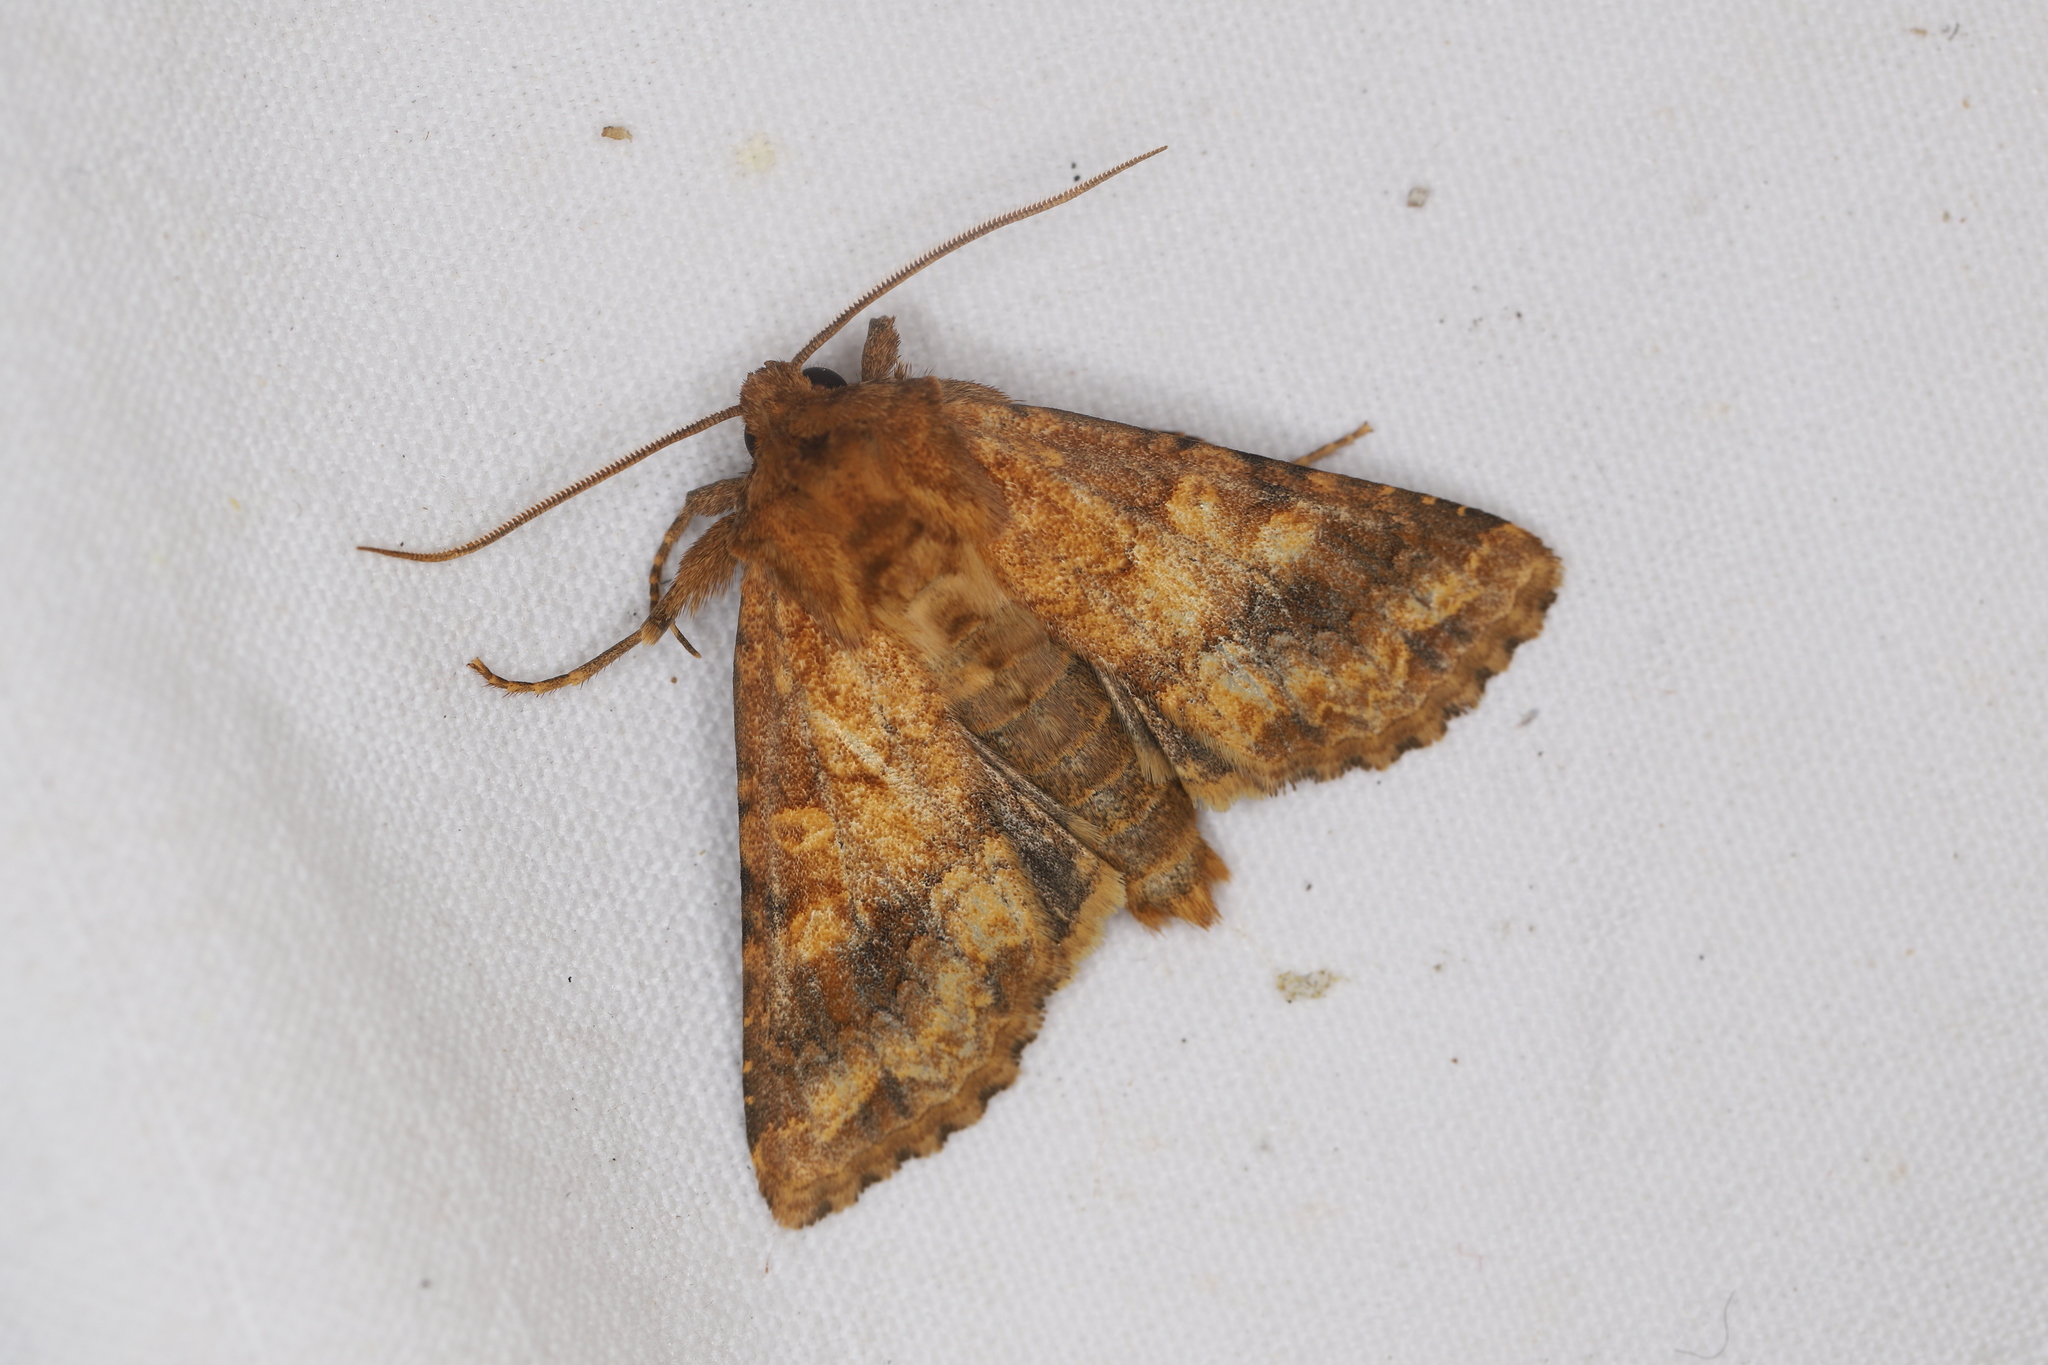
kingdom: Animalia
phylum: Arthropoda
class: Insecta
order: Lepidoptera
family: Noctuidae
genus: Conisania
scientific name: Conisania luteago
